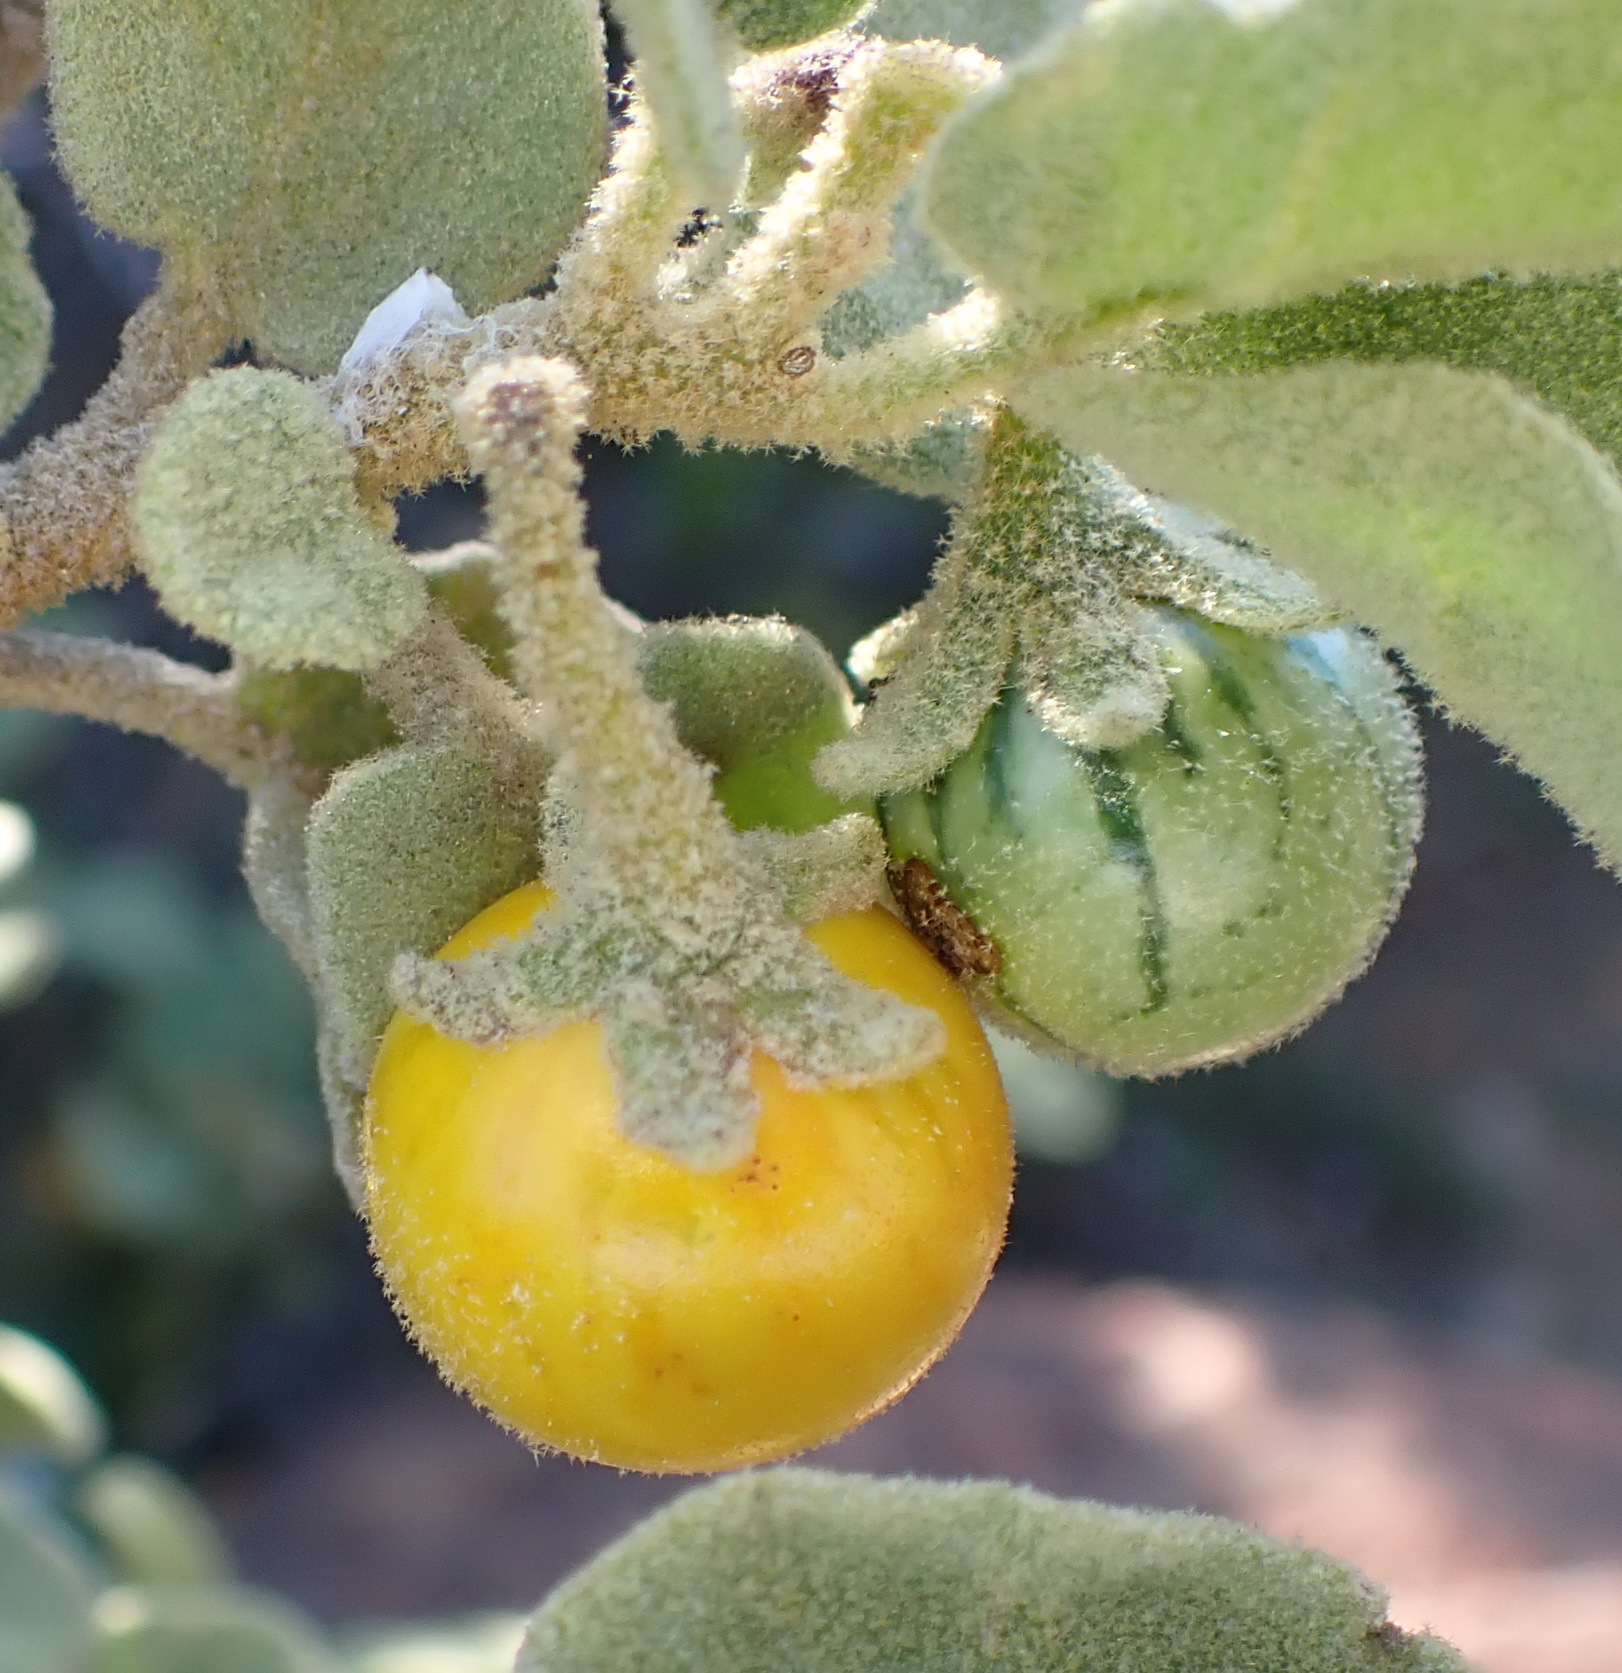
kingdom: Plantae
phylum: Tracheophyta
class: Magnoliopsida
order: Solanales
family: Solanaceae
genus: Solanum
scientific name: Solanum tomentosum
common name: Wild aubergine
